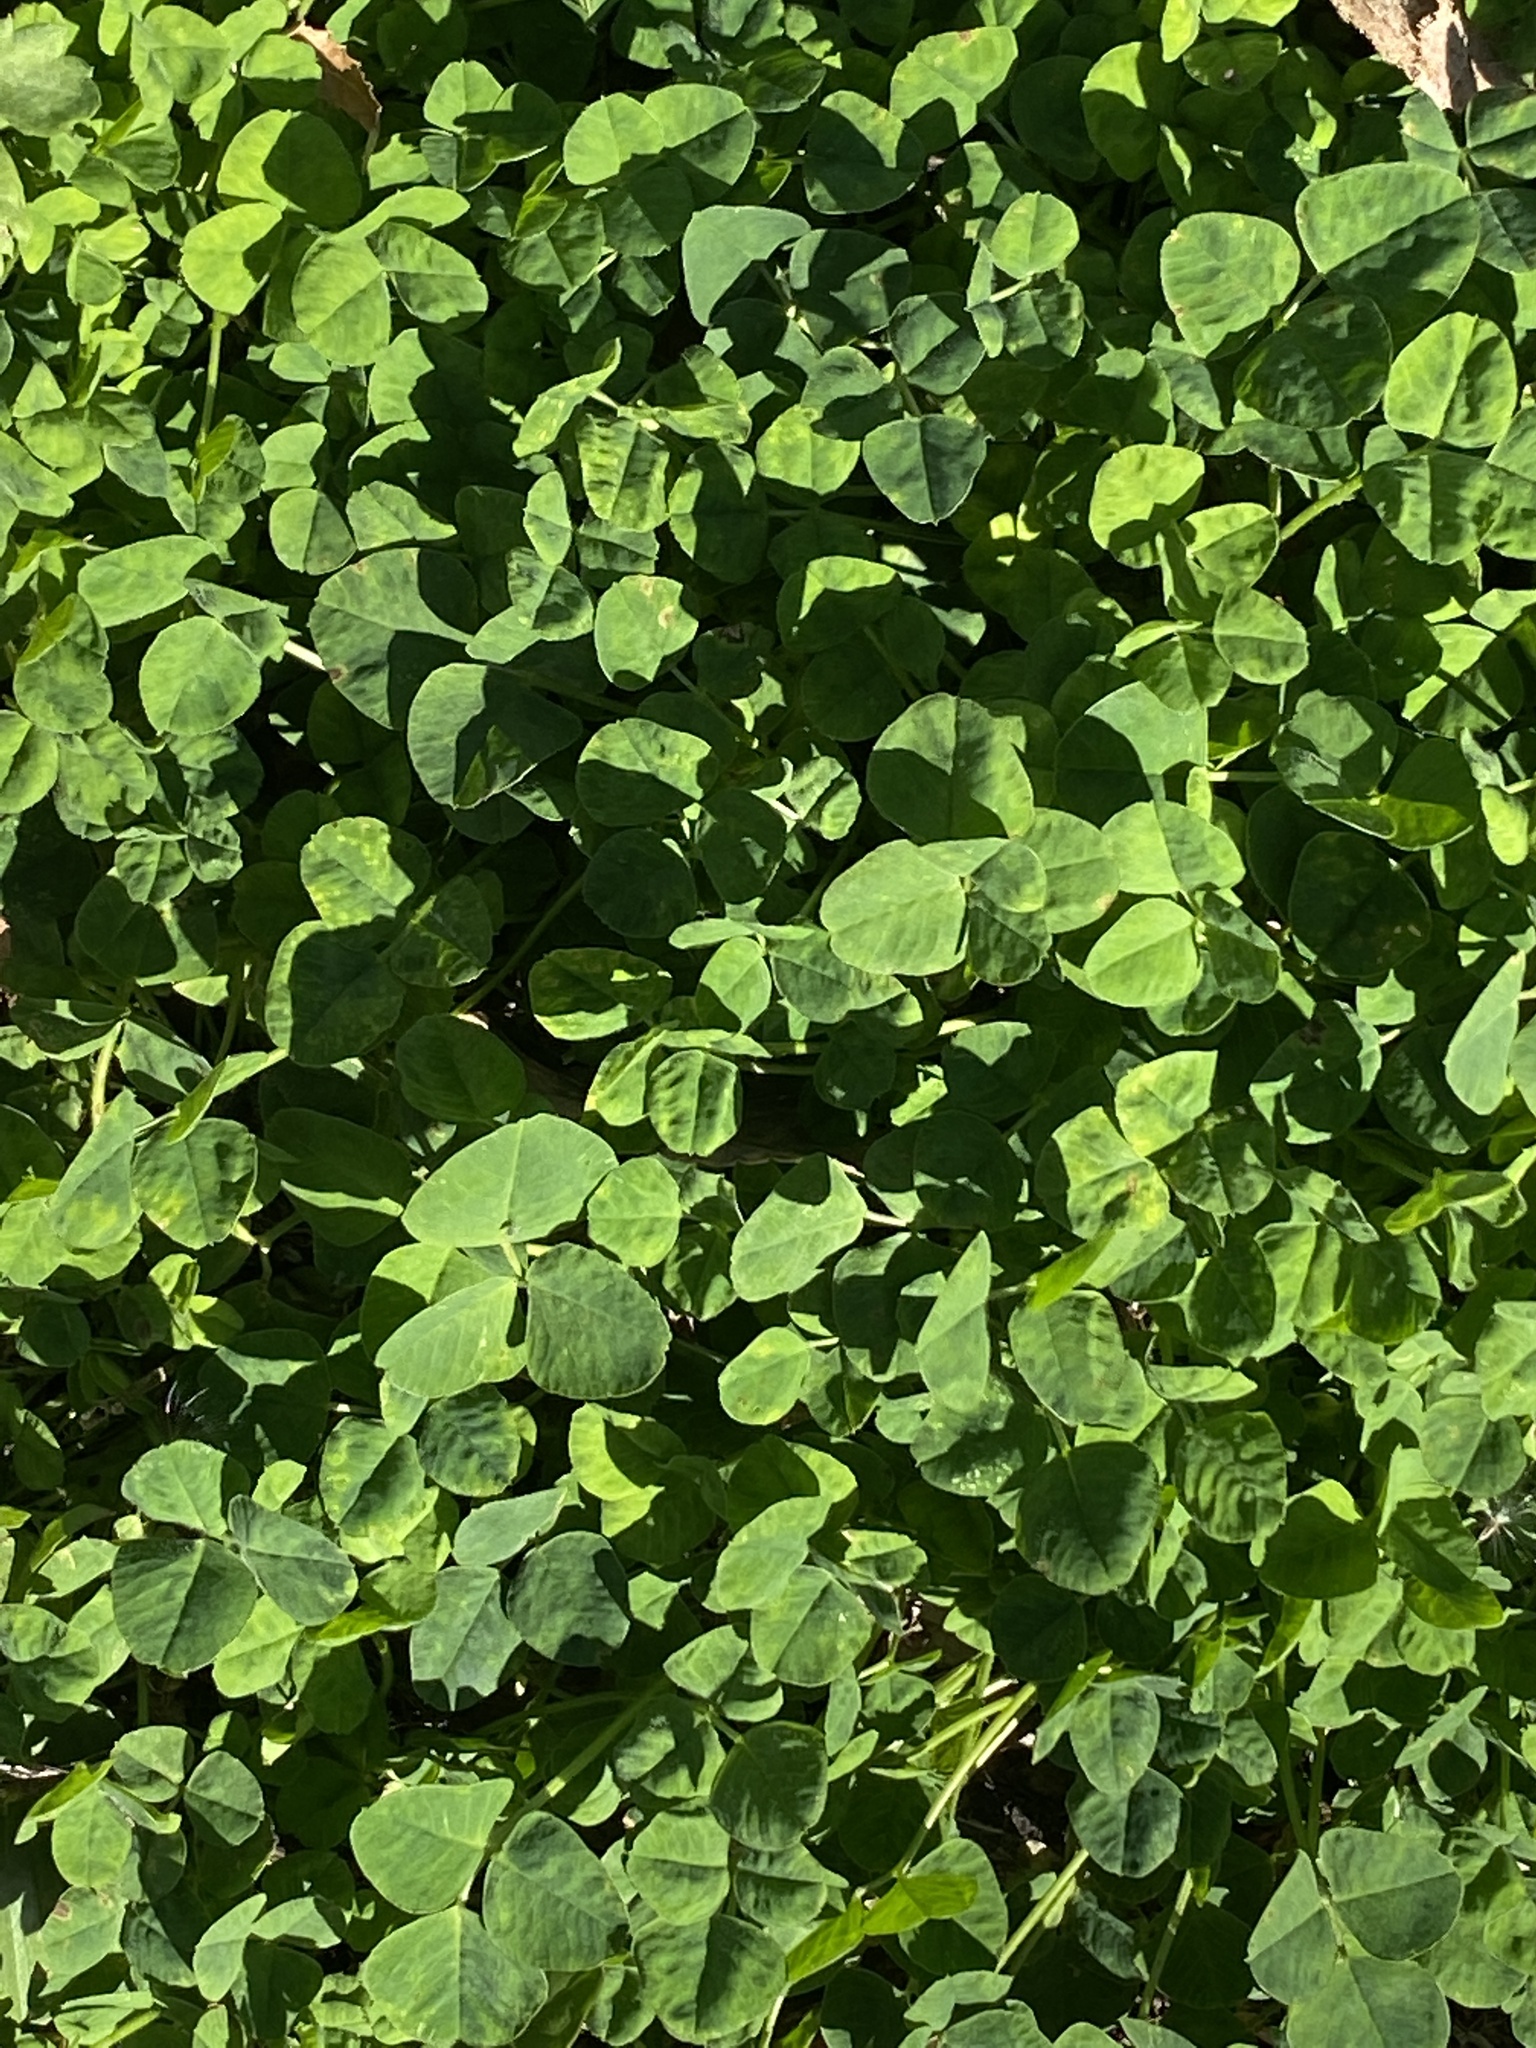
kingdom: Plantae
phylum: Tracheophyta
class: Magnoliopsida
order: Fabales
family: Fabaceae
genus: Medicago
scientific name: Medicago lupulina
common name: Black medick
